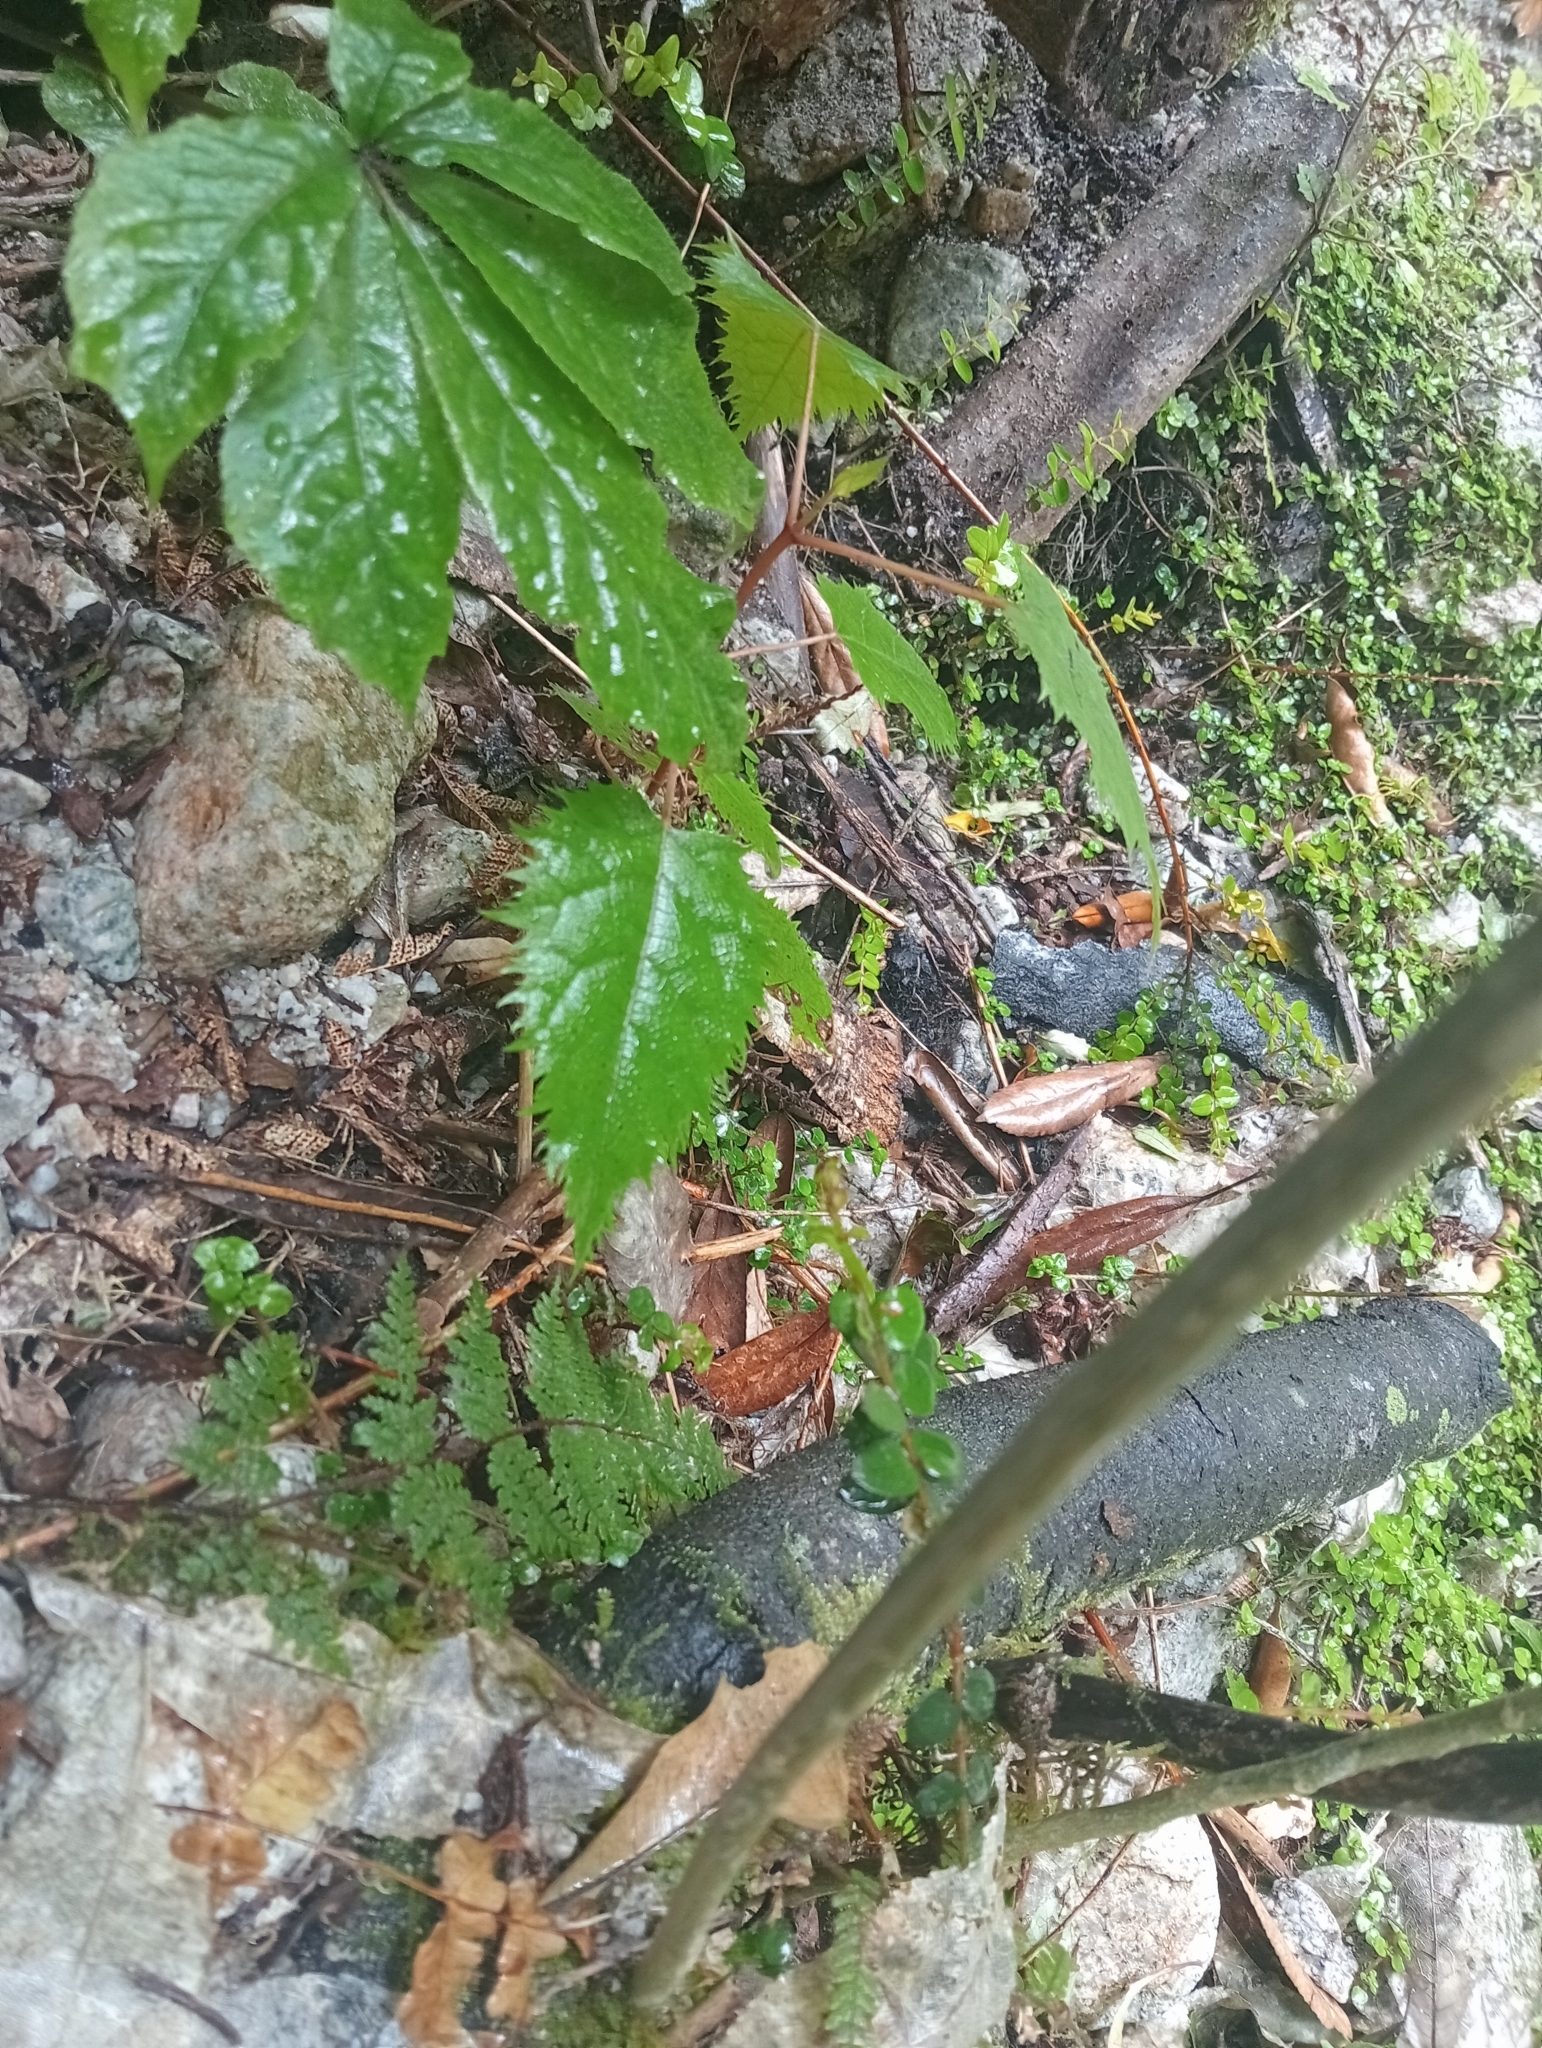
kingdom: Plantae
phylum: Tracheophyta
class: Magnoliopsida
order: Oxalidales
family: Elaeocarpaceae
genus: Aristotelia
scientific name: Aristotelia serrata
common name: New zealand wineberry
